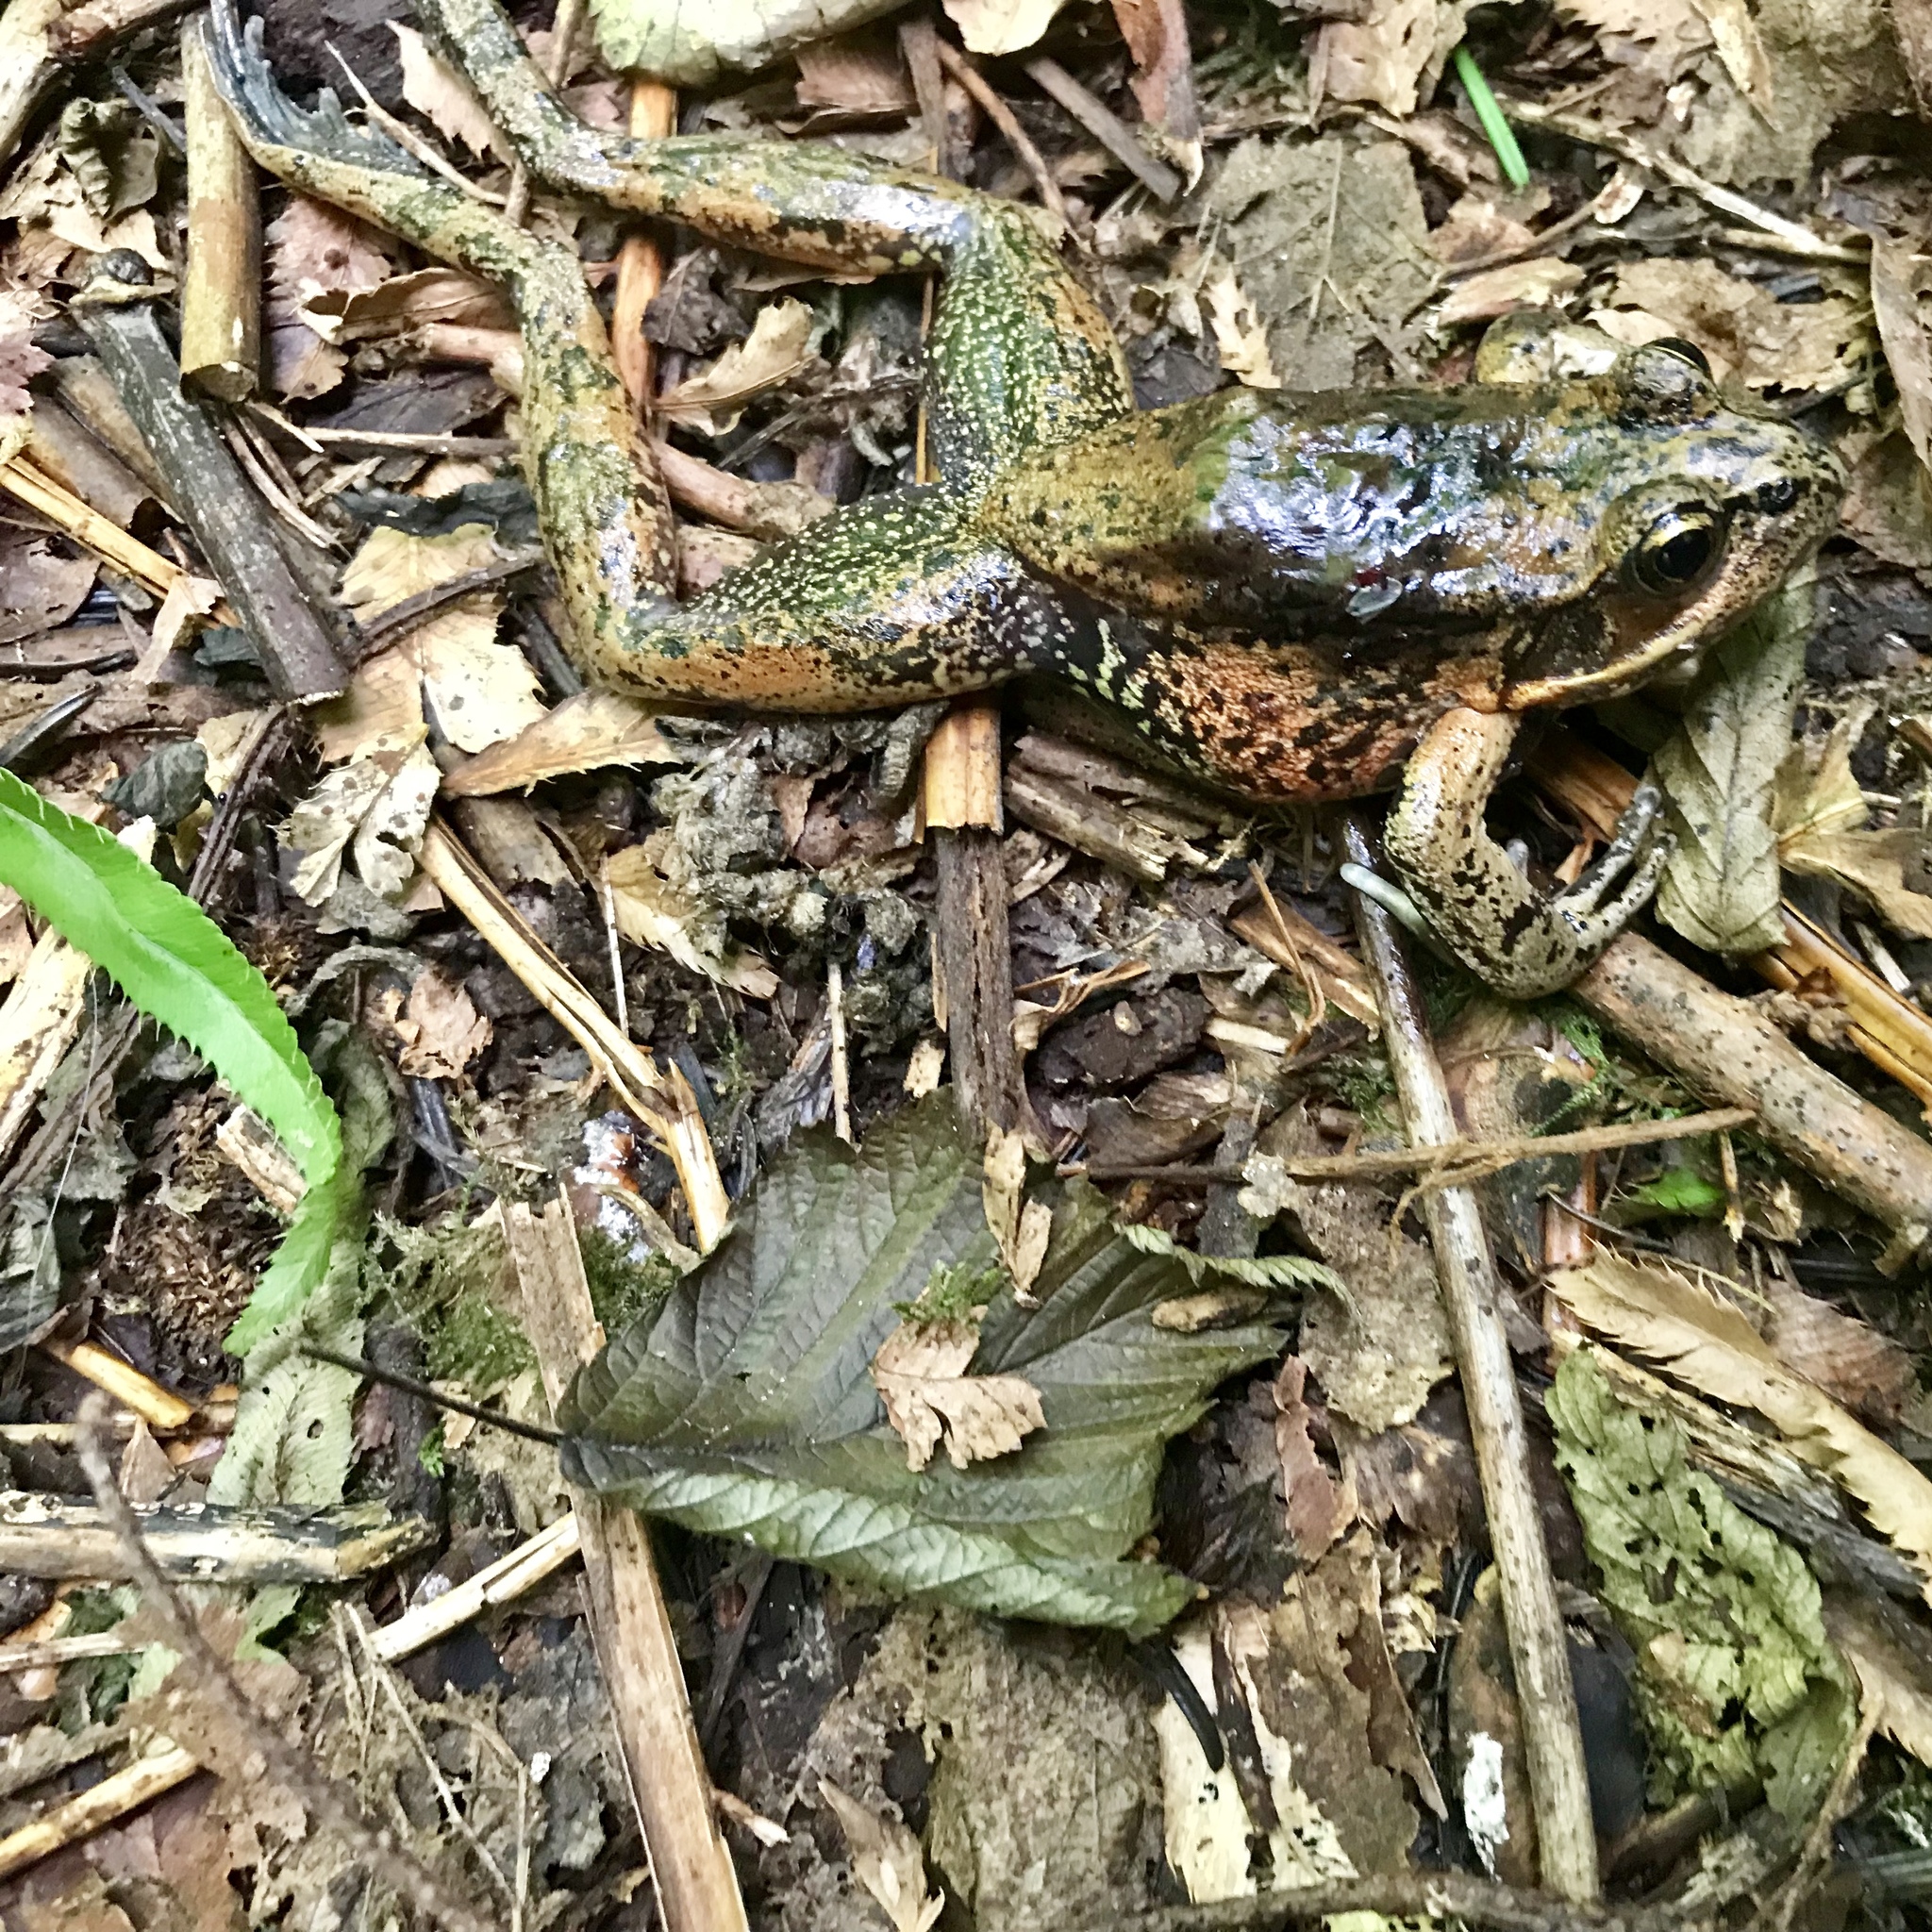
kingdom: Animalia
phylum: Chordata
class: Amphibia
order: Anura
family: Ranidae
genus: Rana
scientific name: Rana aurora
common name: Red-legged frog
